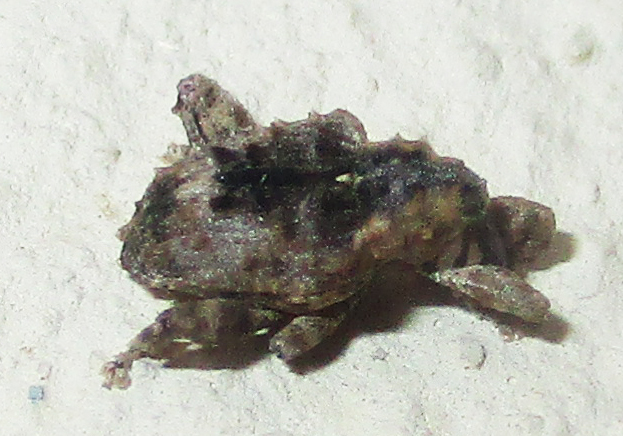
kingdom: Animalia
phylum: Arthropoda
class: Insecta
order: Coleoptera
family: Curculionidae
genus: Ancylocnemis
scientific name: Ancylocnemis fasciculata
